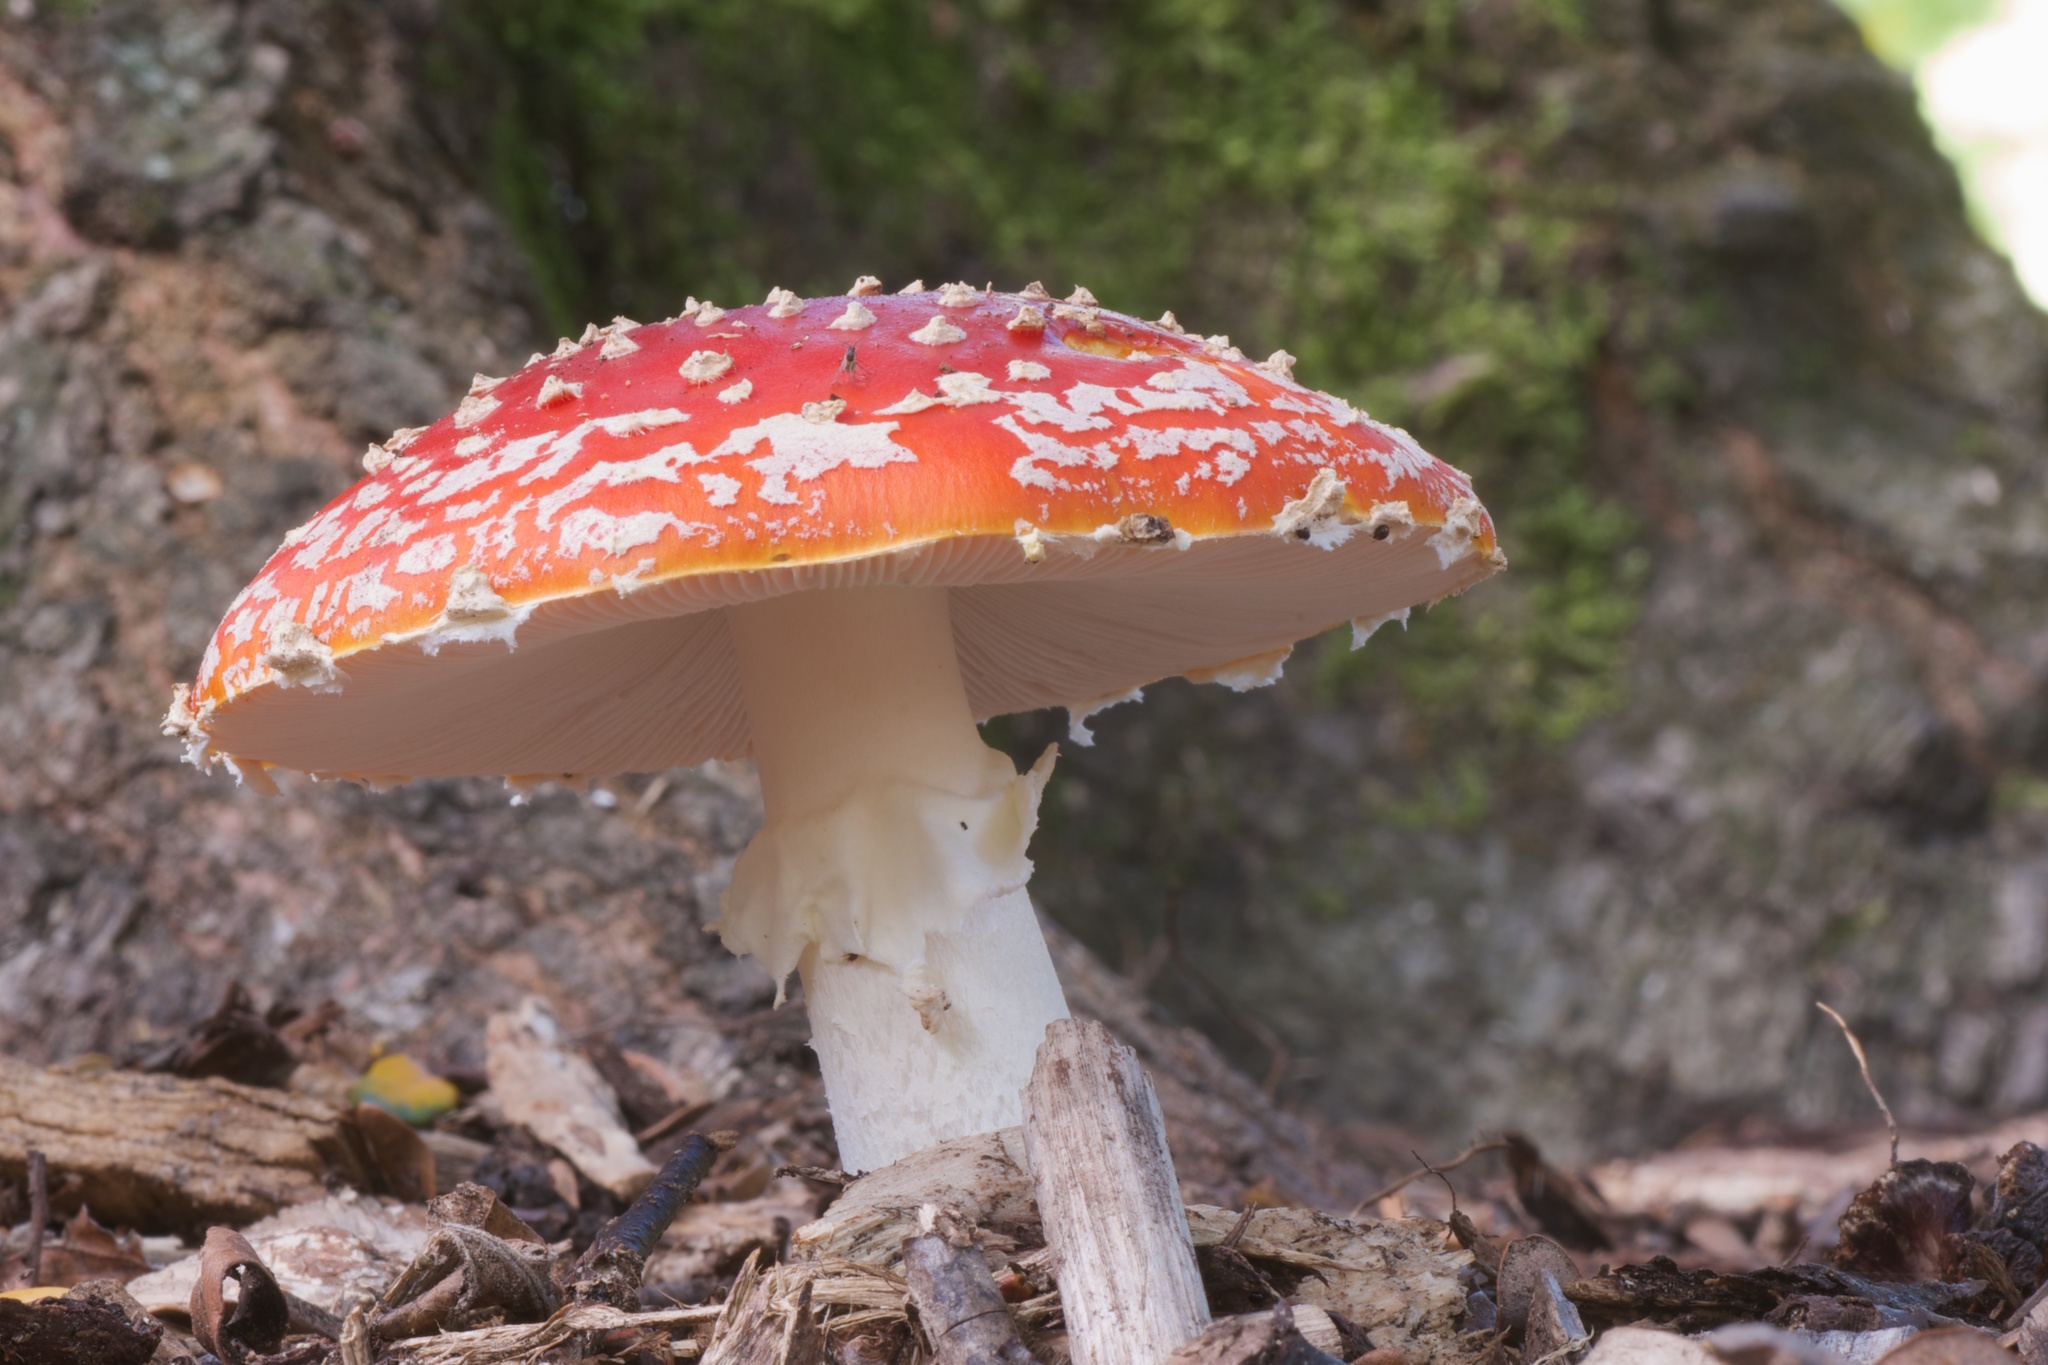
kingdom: Fungi
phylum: Basidiomycota
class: Agaricomycetes
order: Agaricales
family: Amanitaceae
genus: Amanita
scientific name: Amanita muscaria
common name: Fly agaric
